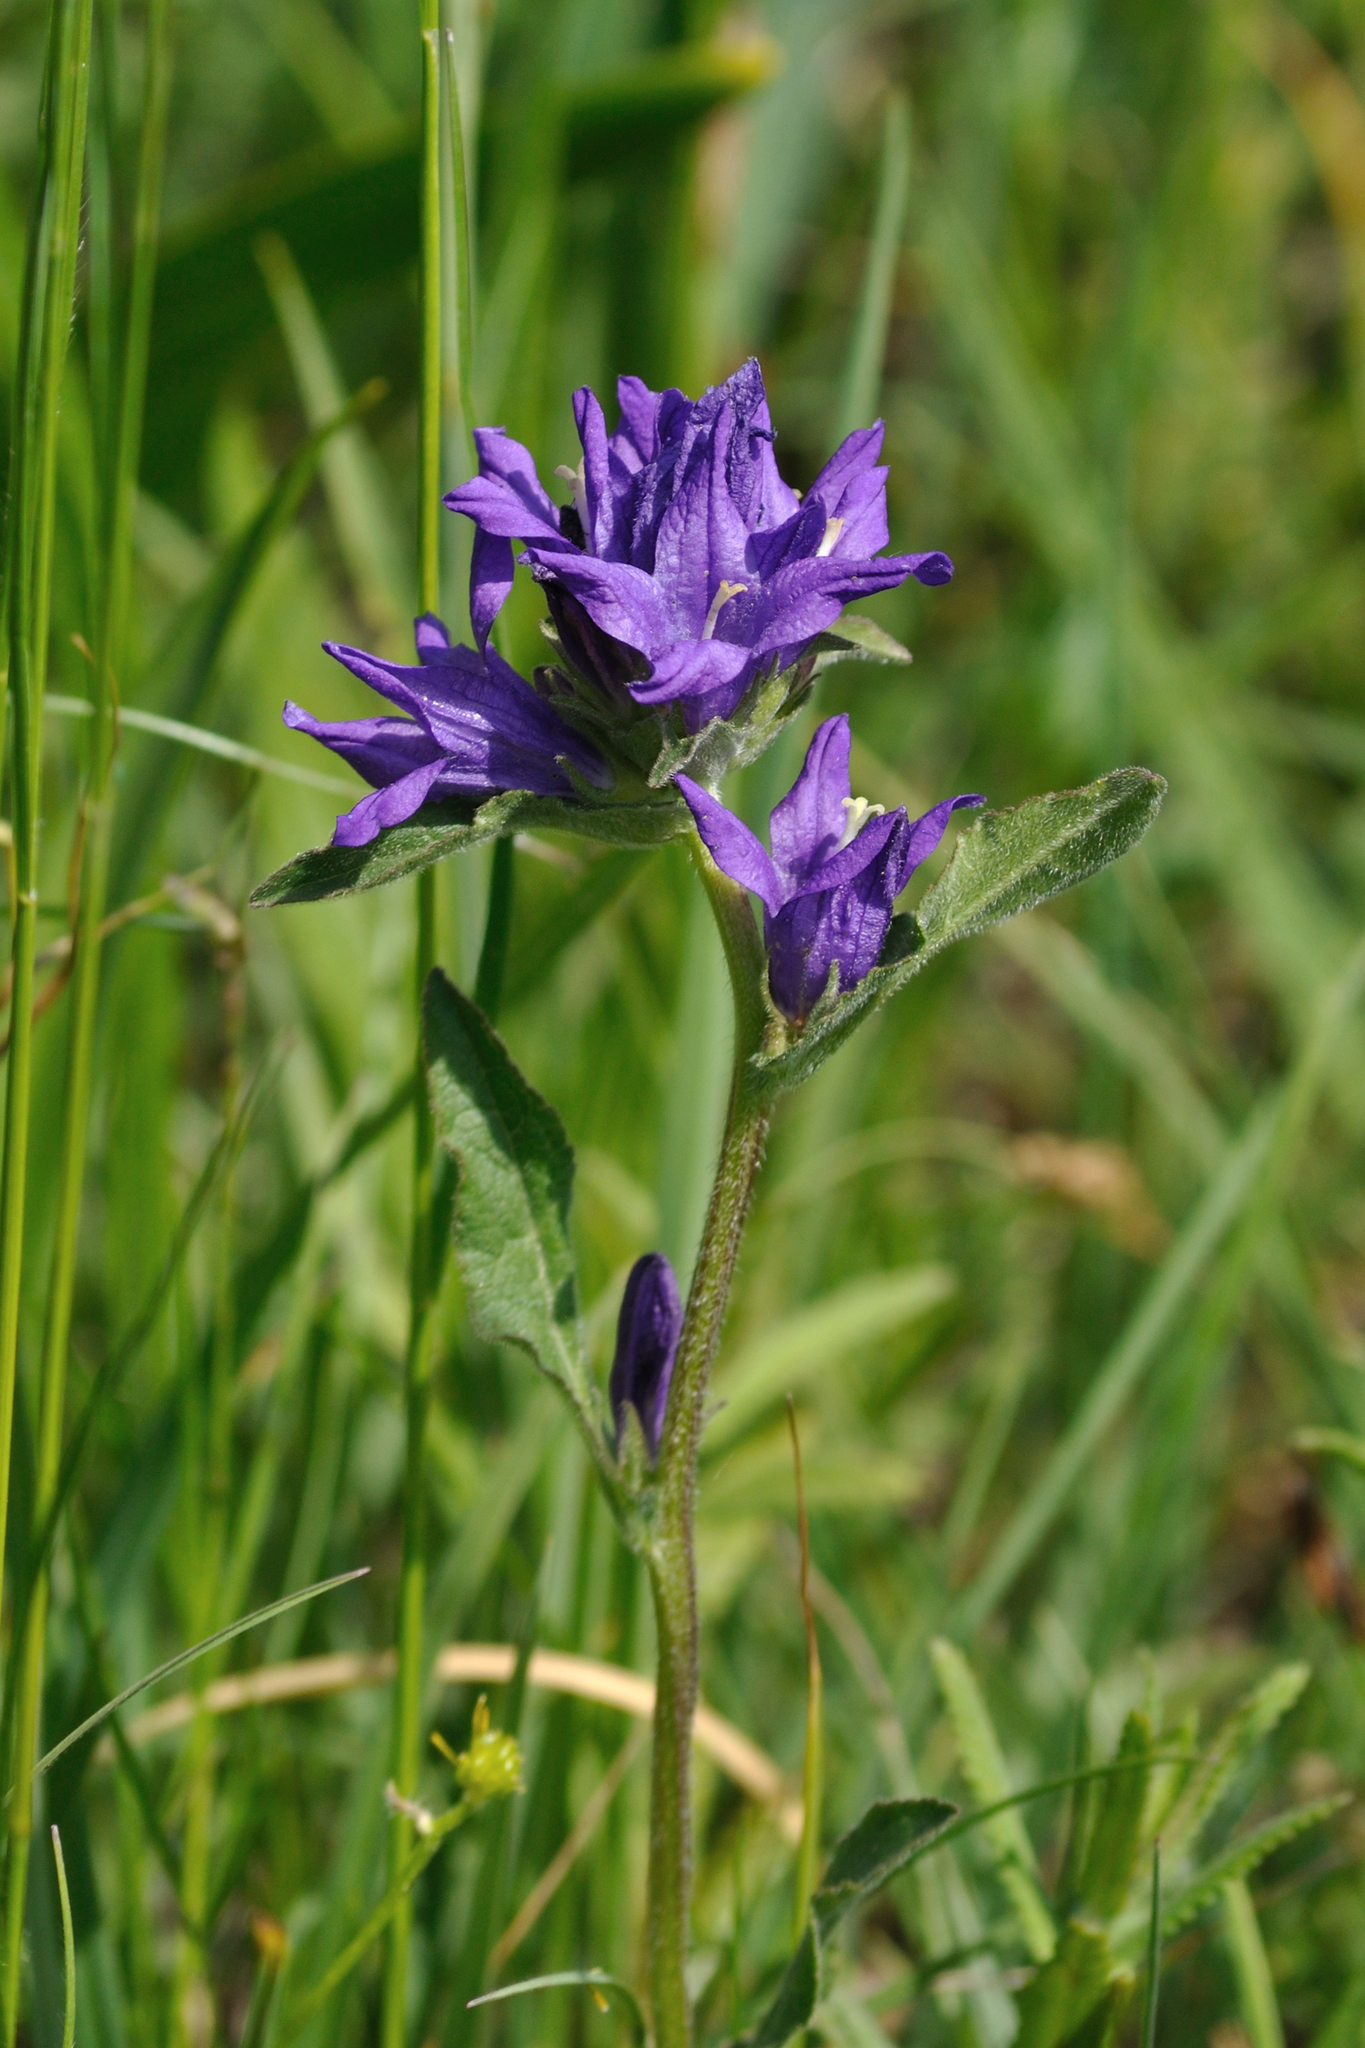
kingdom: Plantae
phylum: Tracheophyta
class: Magnoliopsida
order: Asterales
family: Campanulaceae
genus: Campanula
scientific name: Campanula glomerata
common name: Clustered bellflower
